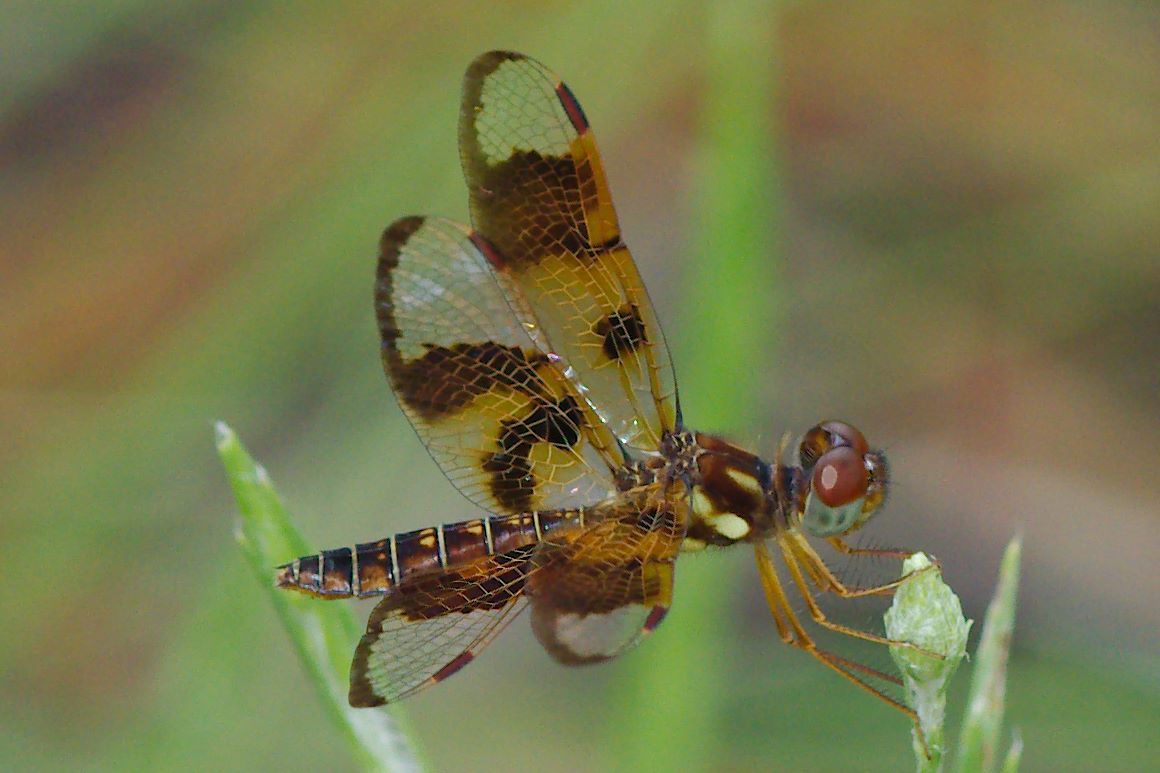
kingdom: Animalia
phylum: Arthropoda
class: Insecta
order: Odonata
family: Libellulidae
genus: Perithemis
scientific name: Perithemis tenera
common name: Eastern amberwing
